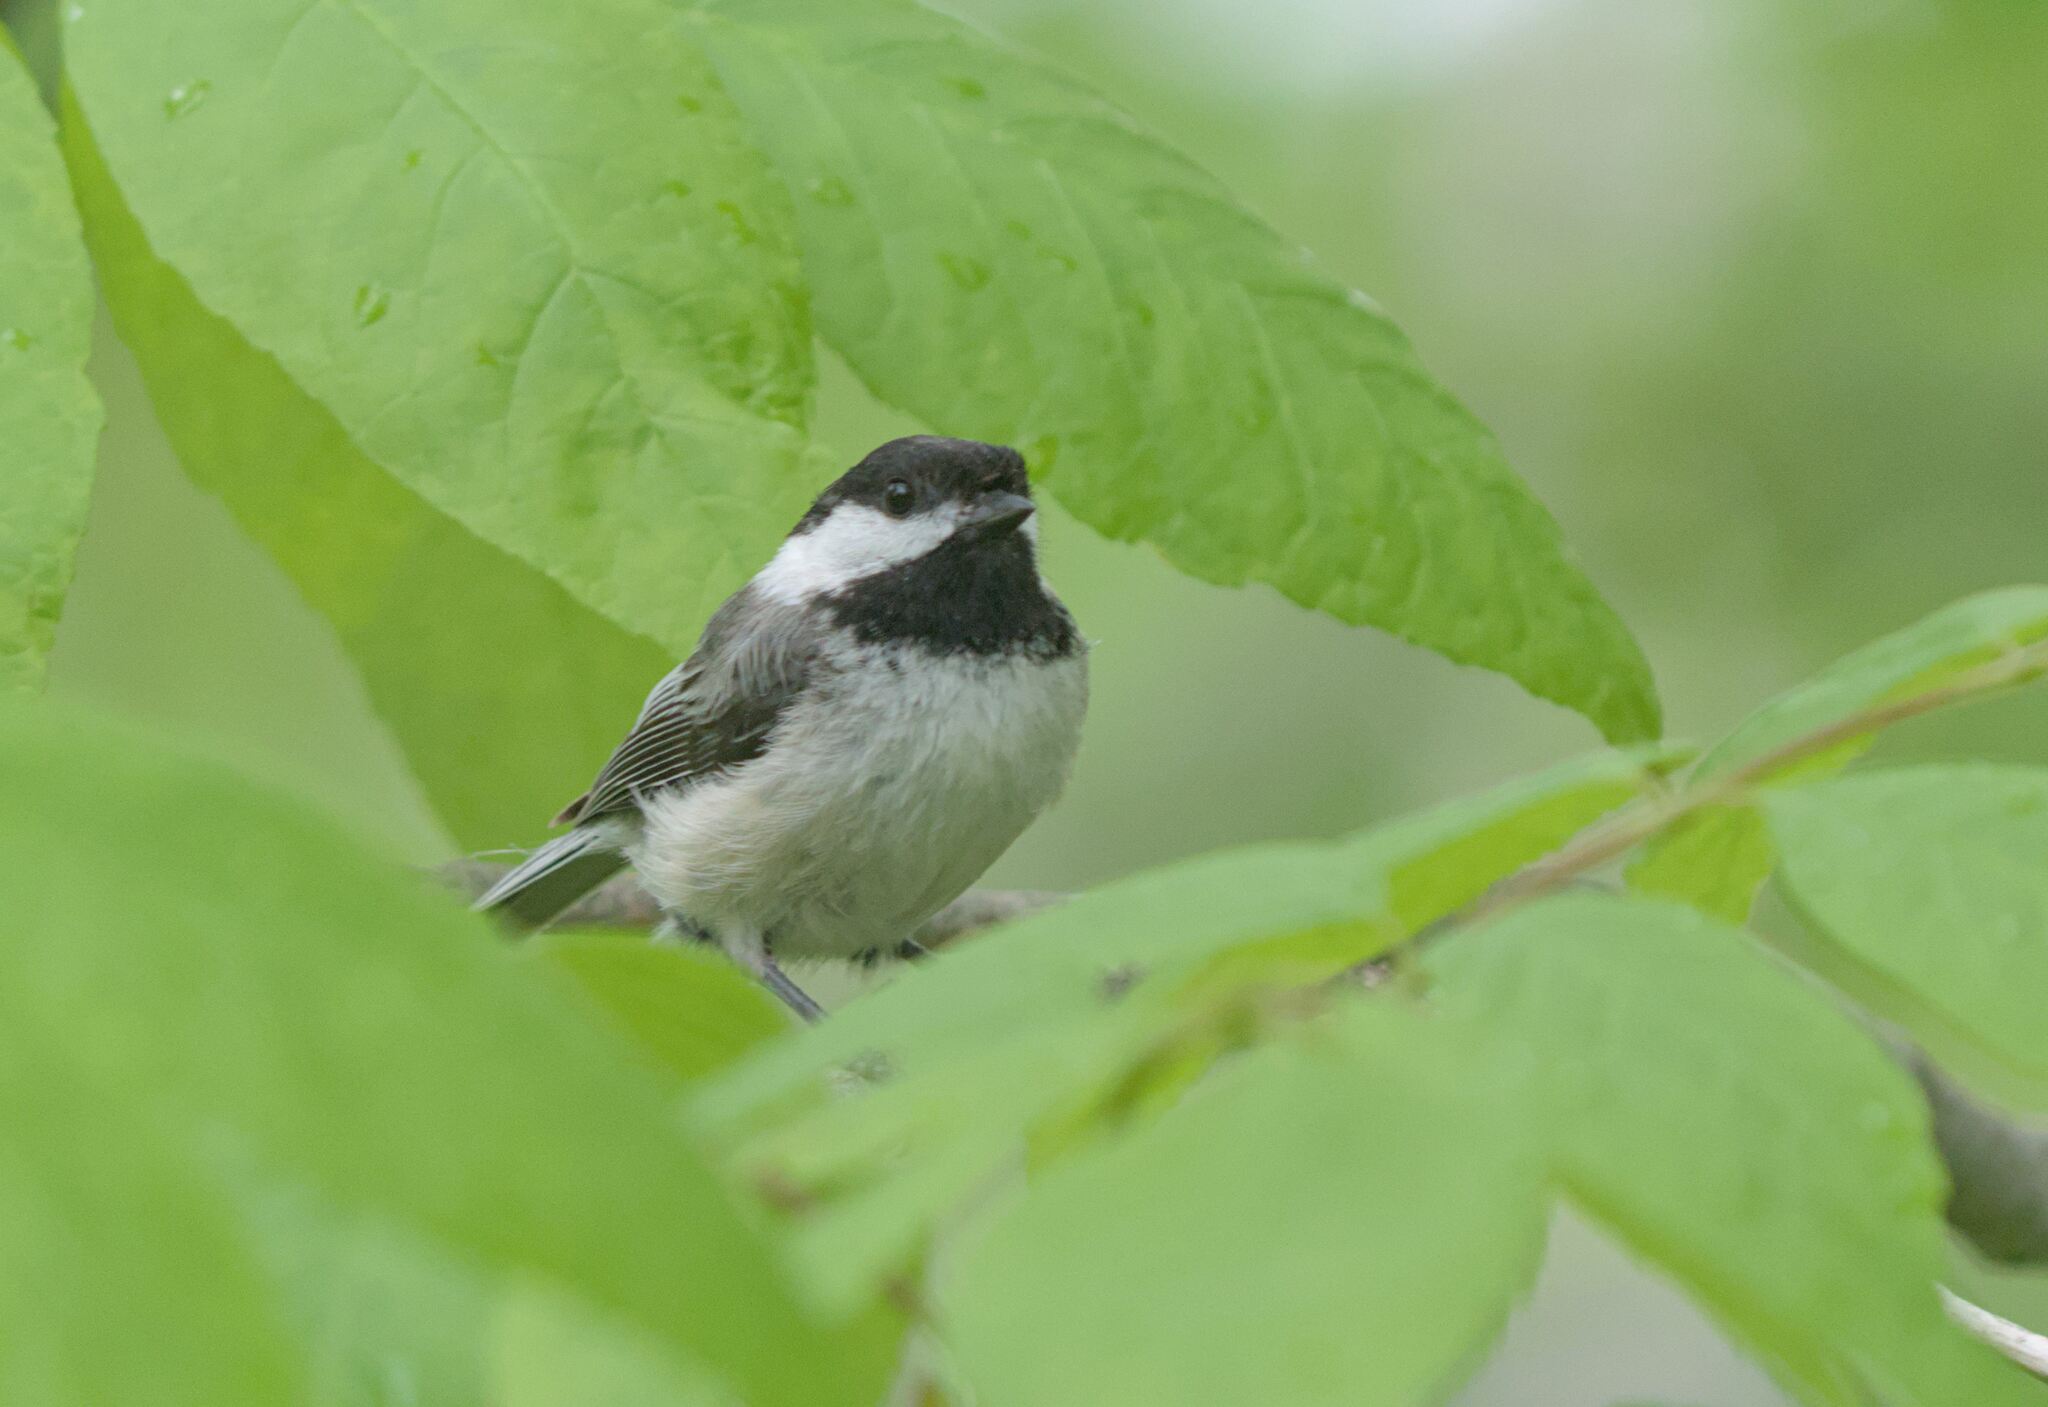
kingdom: Animalia
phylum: Chordata
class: Aves
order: Passeriformes
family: Paridae
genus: Poecile
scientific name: Poecile atricapillus
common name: Black-capped chickadee
